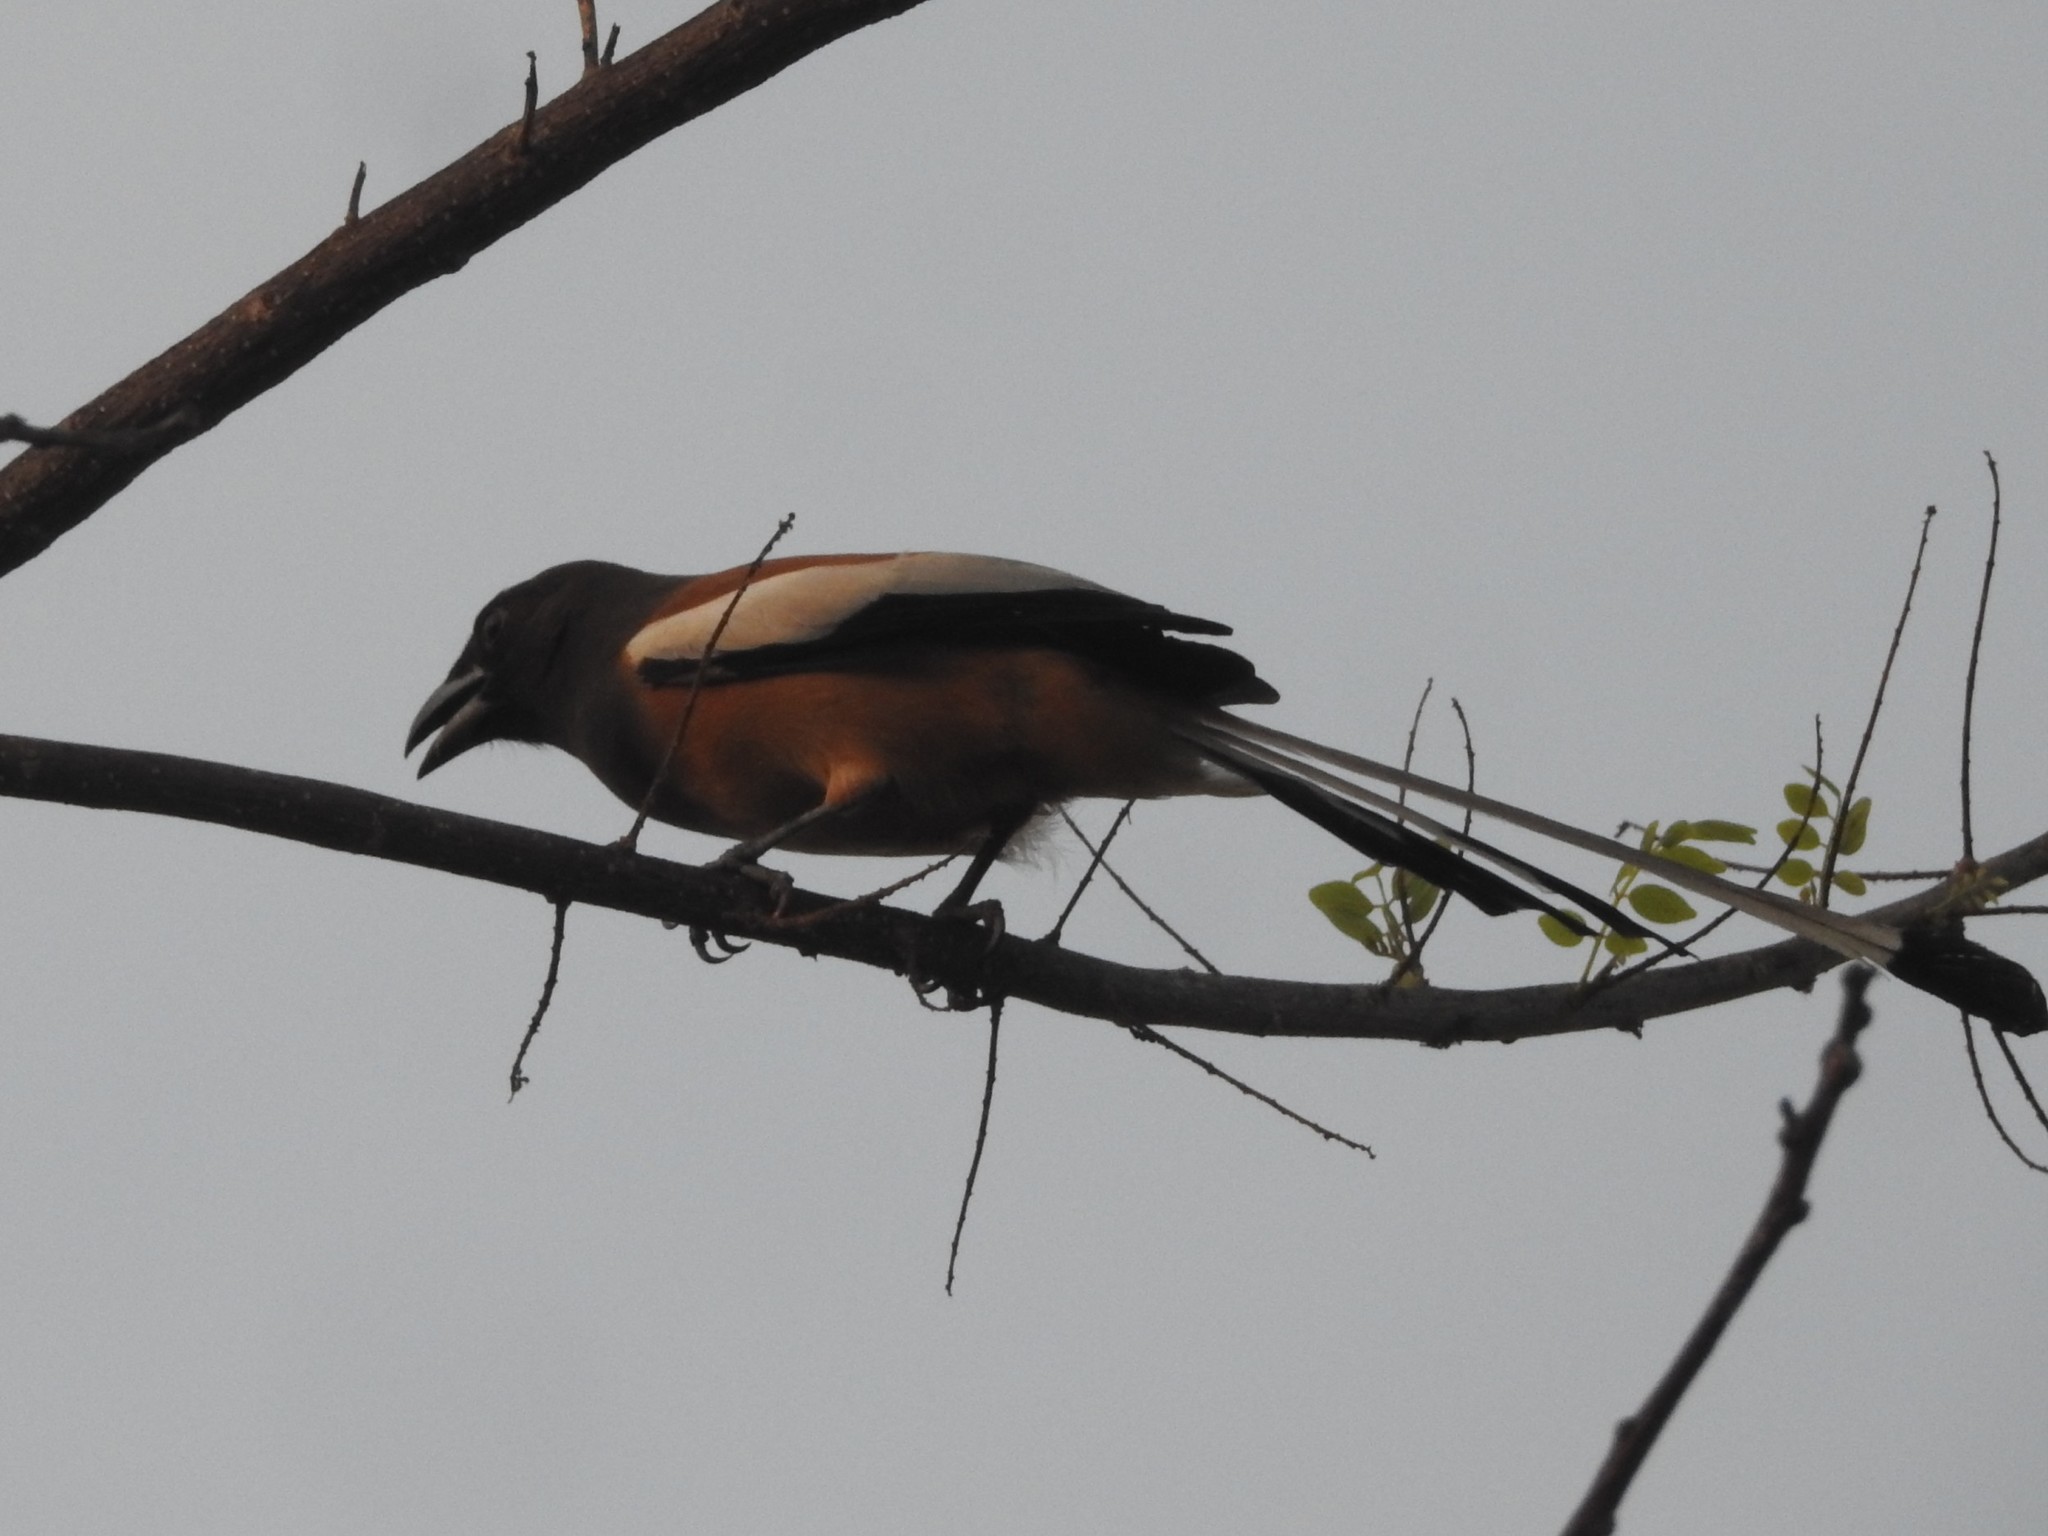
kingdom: Animalia
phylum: Chordata
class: Aves
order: Passeriformes
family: Corvidae
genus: Dendrocitta
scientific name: Dendrocitta vagabunda
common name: Rufous treepie
